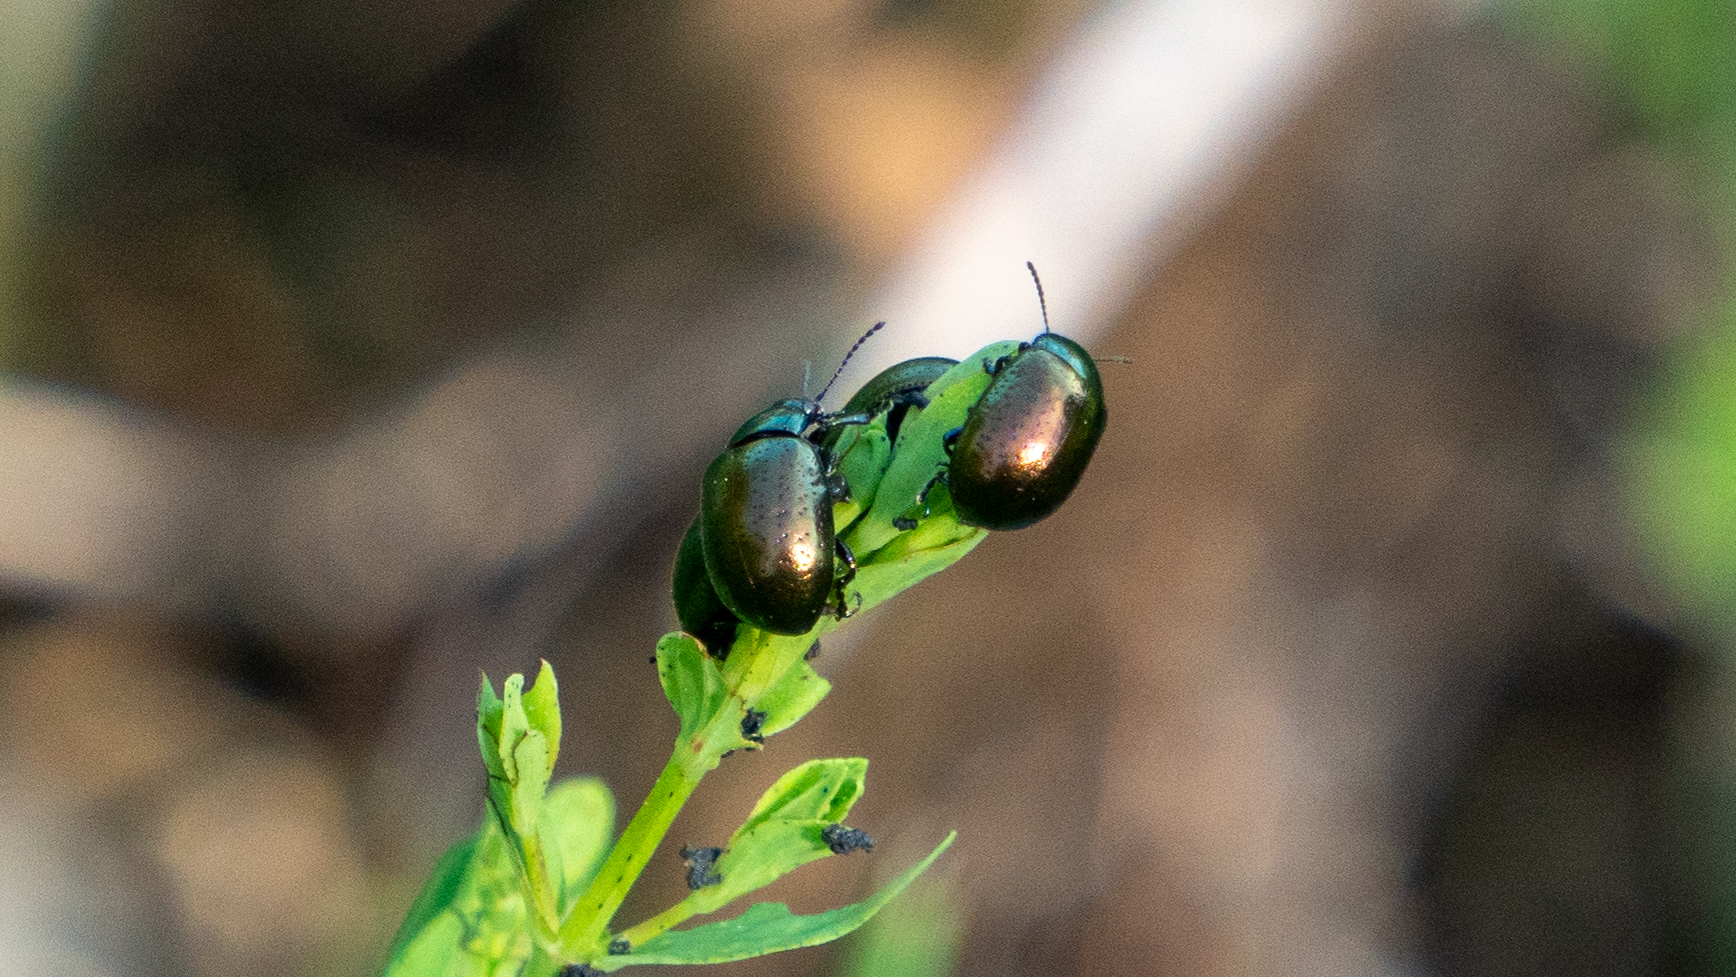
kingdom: Animalia
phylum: Arthropoda
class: Insecta
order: Coleoptera
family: Chrysomelidae
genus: Chrysolina
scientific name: Chrysolina hyperici
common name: St. johnswort beetle
